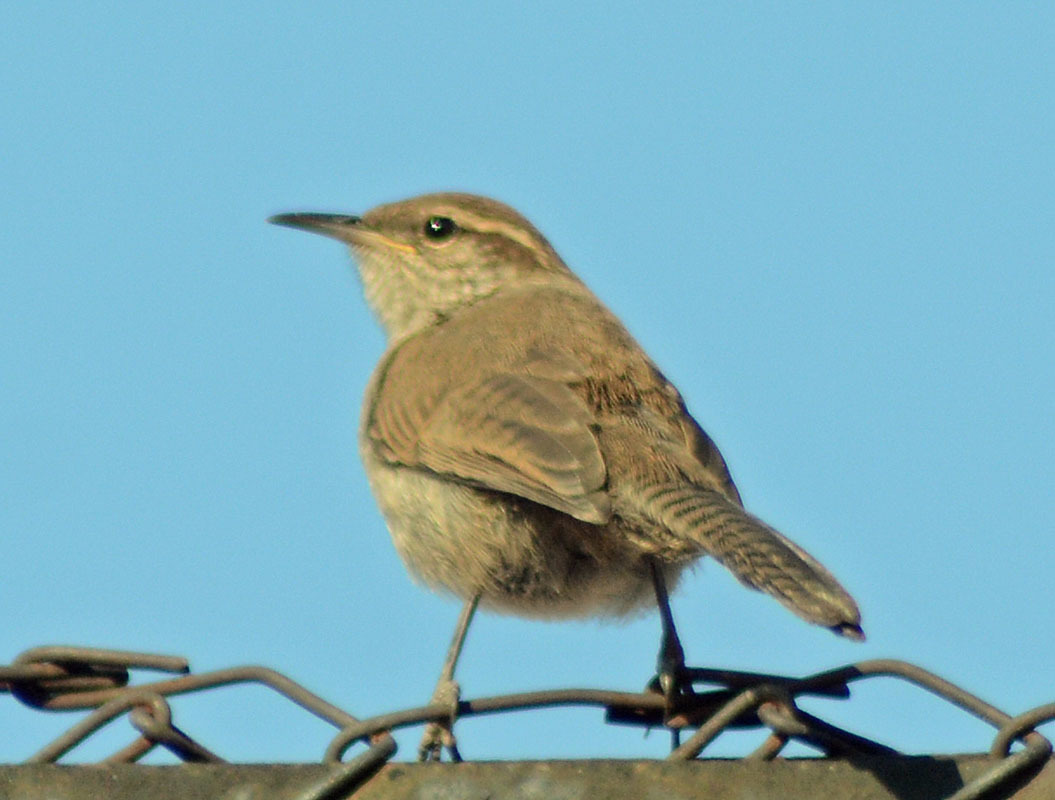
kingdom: Animalia
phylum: Chordata
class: Aves
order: Passeriformes
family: Troglodytidae
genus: Thryomanes
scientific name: Thryomanes bewickii
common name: Bewick's wren
